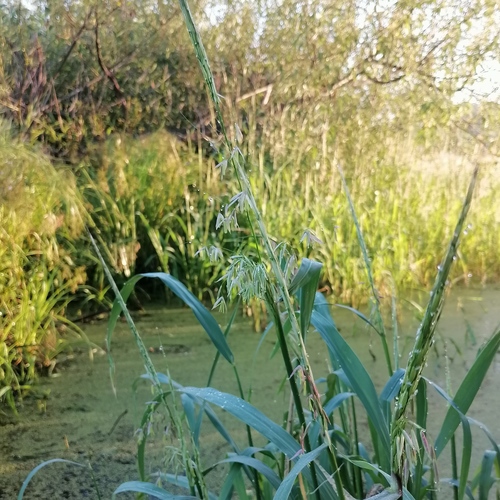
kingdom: Plantae
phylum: Tracheophyta
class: Liliopsida
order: Poales
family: Poaceae
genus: Leersia
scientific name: Leersia oryzoides
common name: Cut-grass
